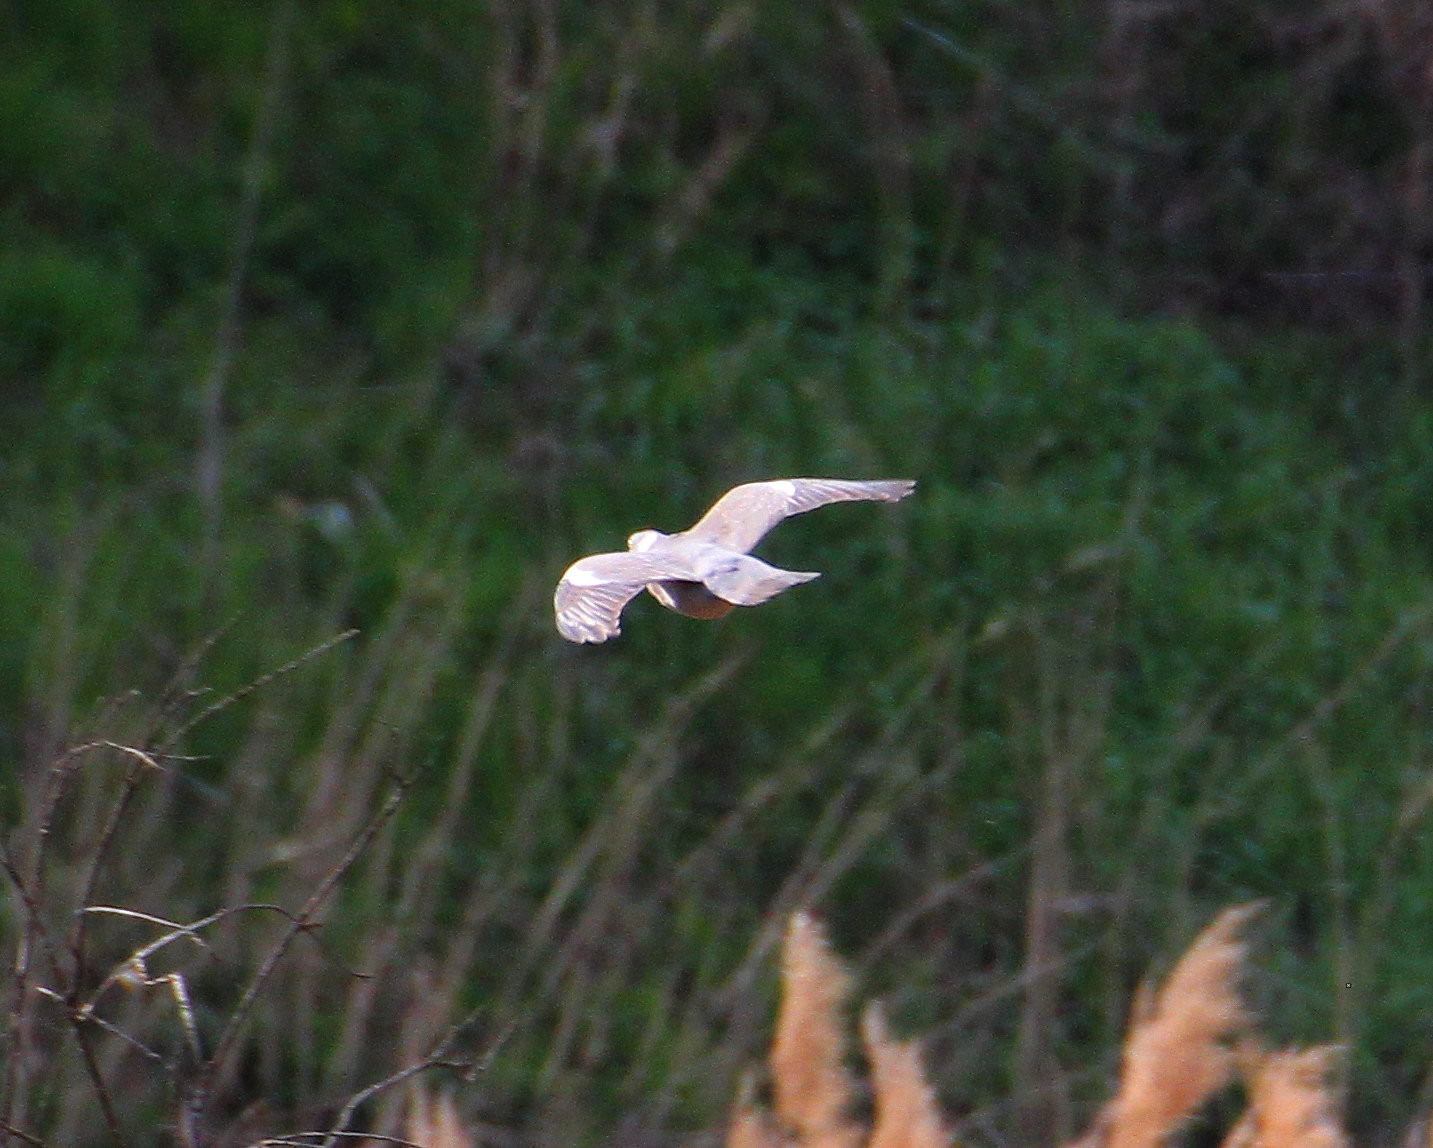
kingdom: Animalia
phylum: Chordata
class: Aves
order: Columbiformes
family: Columbidae
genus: Columba
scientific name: Columba palumbus
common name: Common wood pigeon
